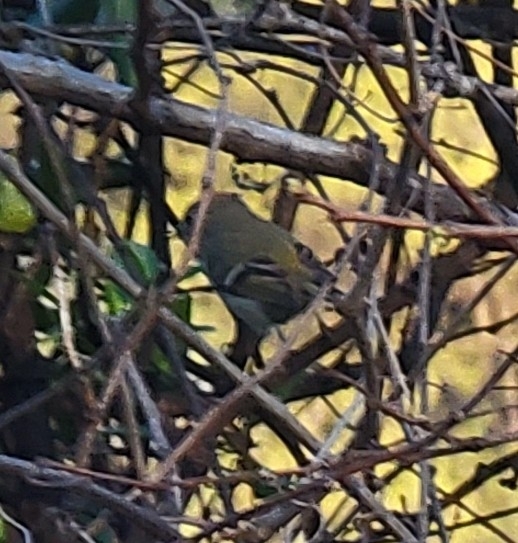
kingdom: Animalia
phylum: Chordata
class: Aves
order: Passeriformes
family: Regulidae
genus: Regulus
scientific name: Regulus calendula
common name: Ruby-crowned kinglet
